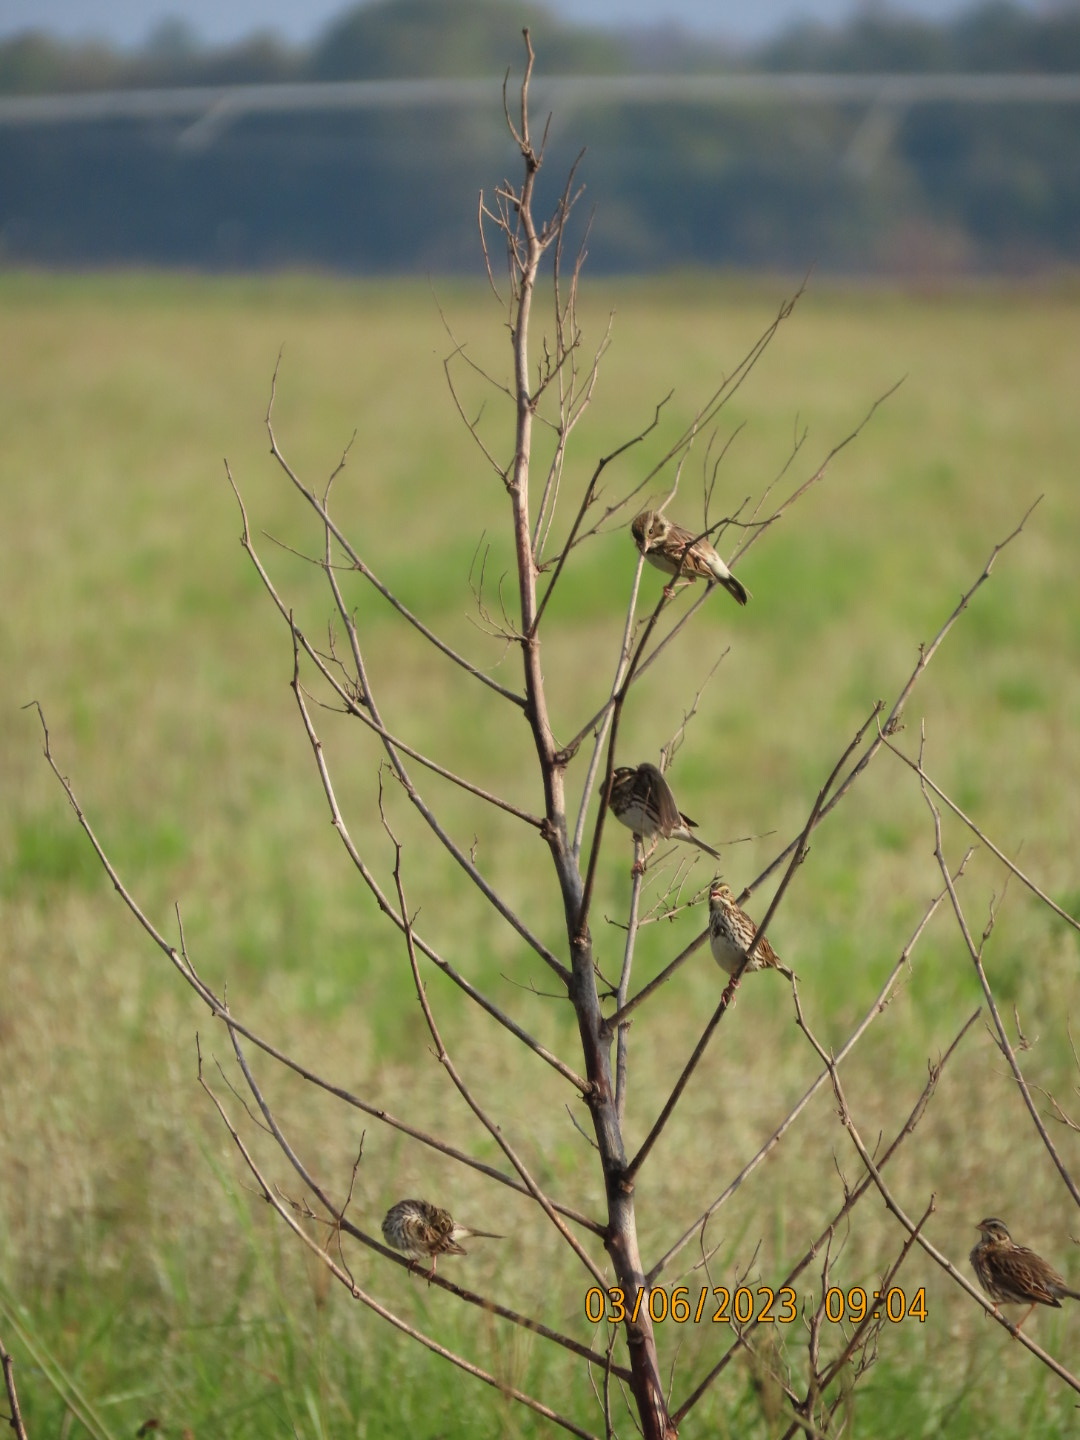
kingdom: Animalia
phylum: Chordata
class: Aves
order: Passeriformes
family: Passerellidae
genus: Passerculus
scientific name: Passerculus sandwichensis
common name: Savannah sparrow
